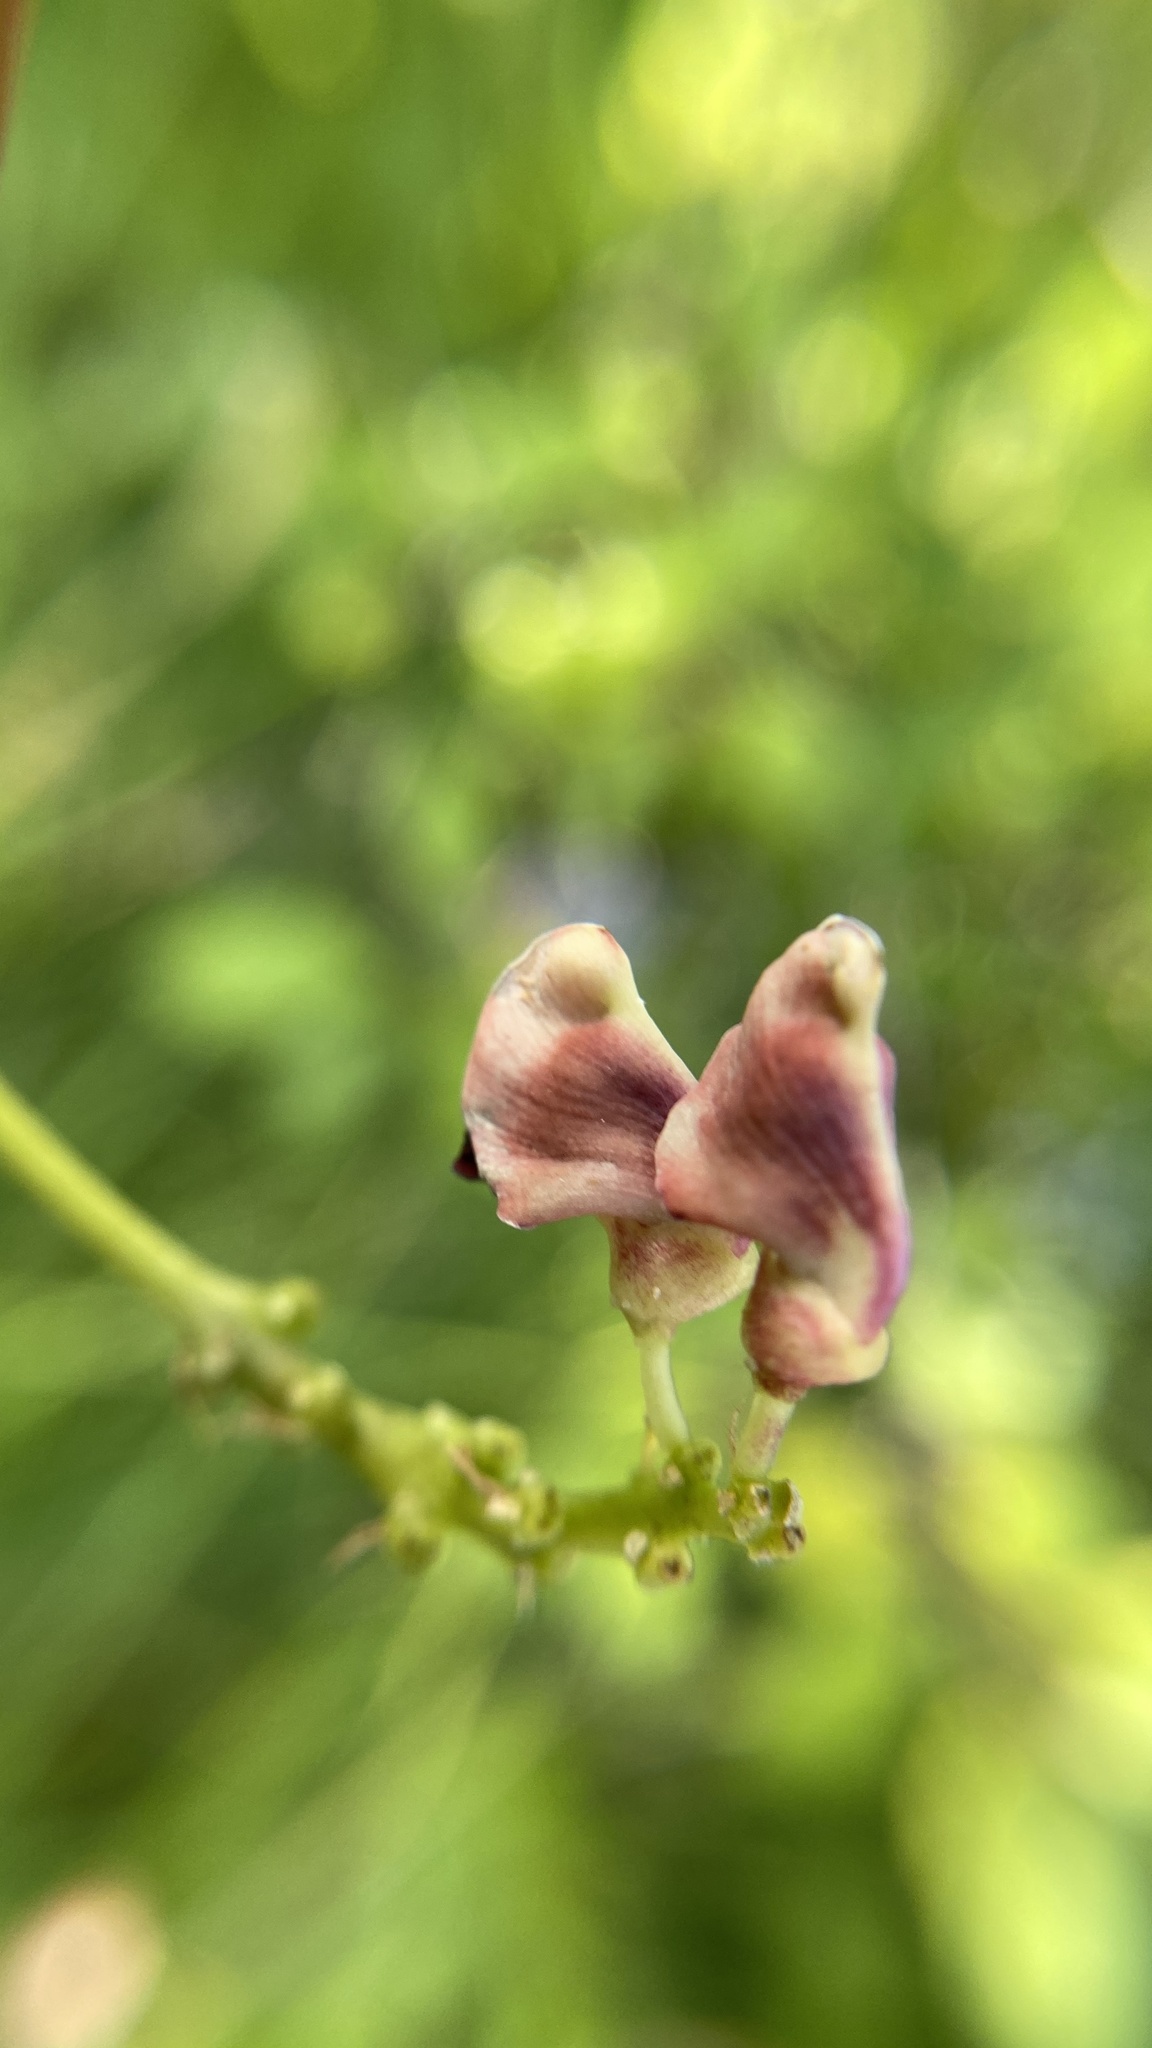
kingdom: Plantae
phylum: Tracheophyta
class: Magnoliopsida
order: Fabales
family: Fabaceae
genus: Apios
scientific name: Apios americana
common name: American potato-bean
